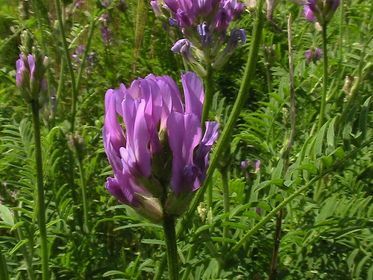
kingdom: Plantae
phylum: Tracheophyta
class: Magnoliopsida
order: Fabales
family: Fabaceae
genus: Astragalus
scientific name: Astragalus onobrychis
